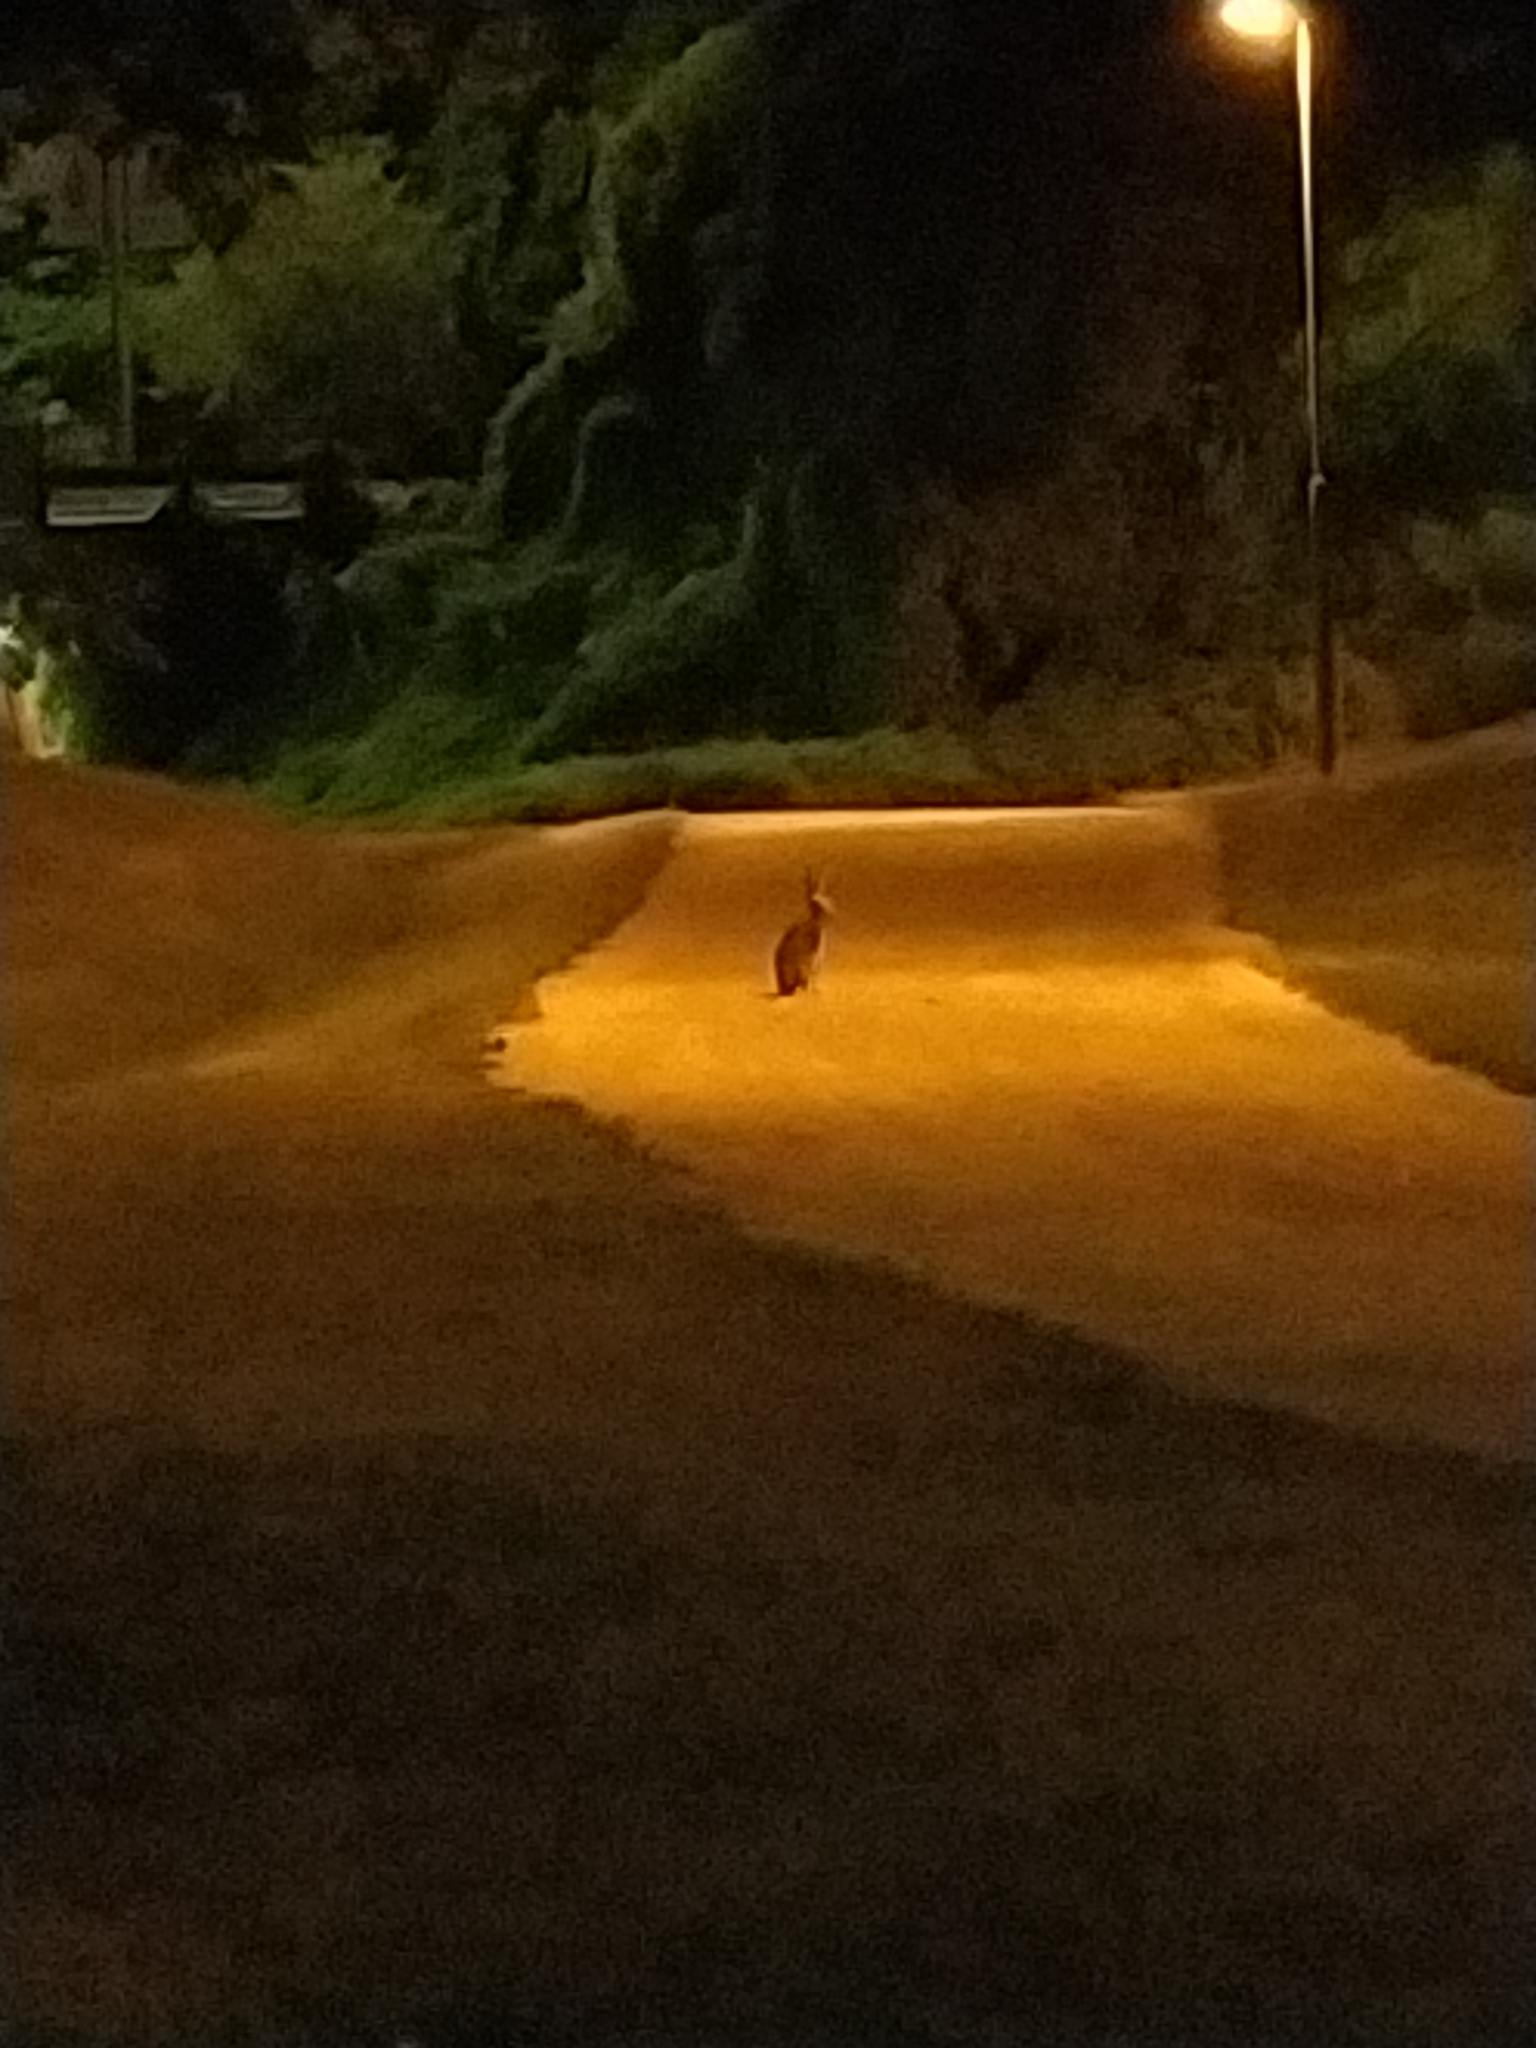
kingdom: Animalia
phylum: Chordata
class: Mammalia
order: Lagomorpha
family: Leporidae
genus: Lepus
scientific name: Lepus europaeus
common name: European hare
